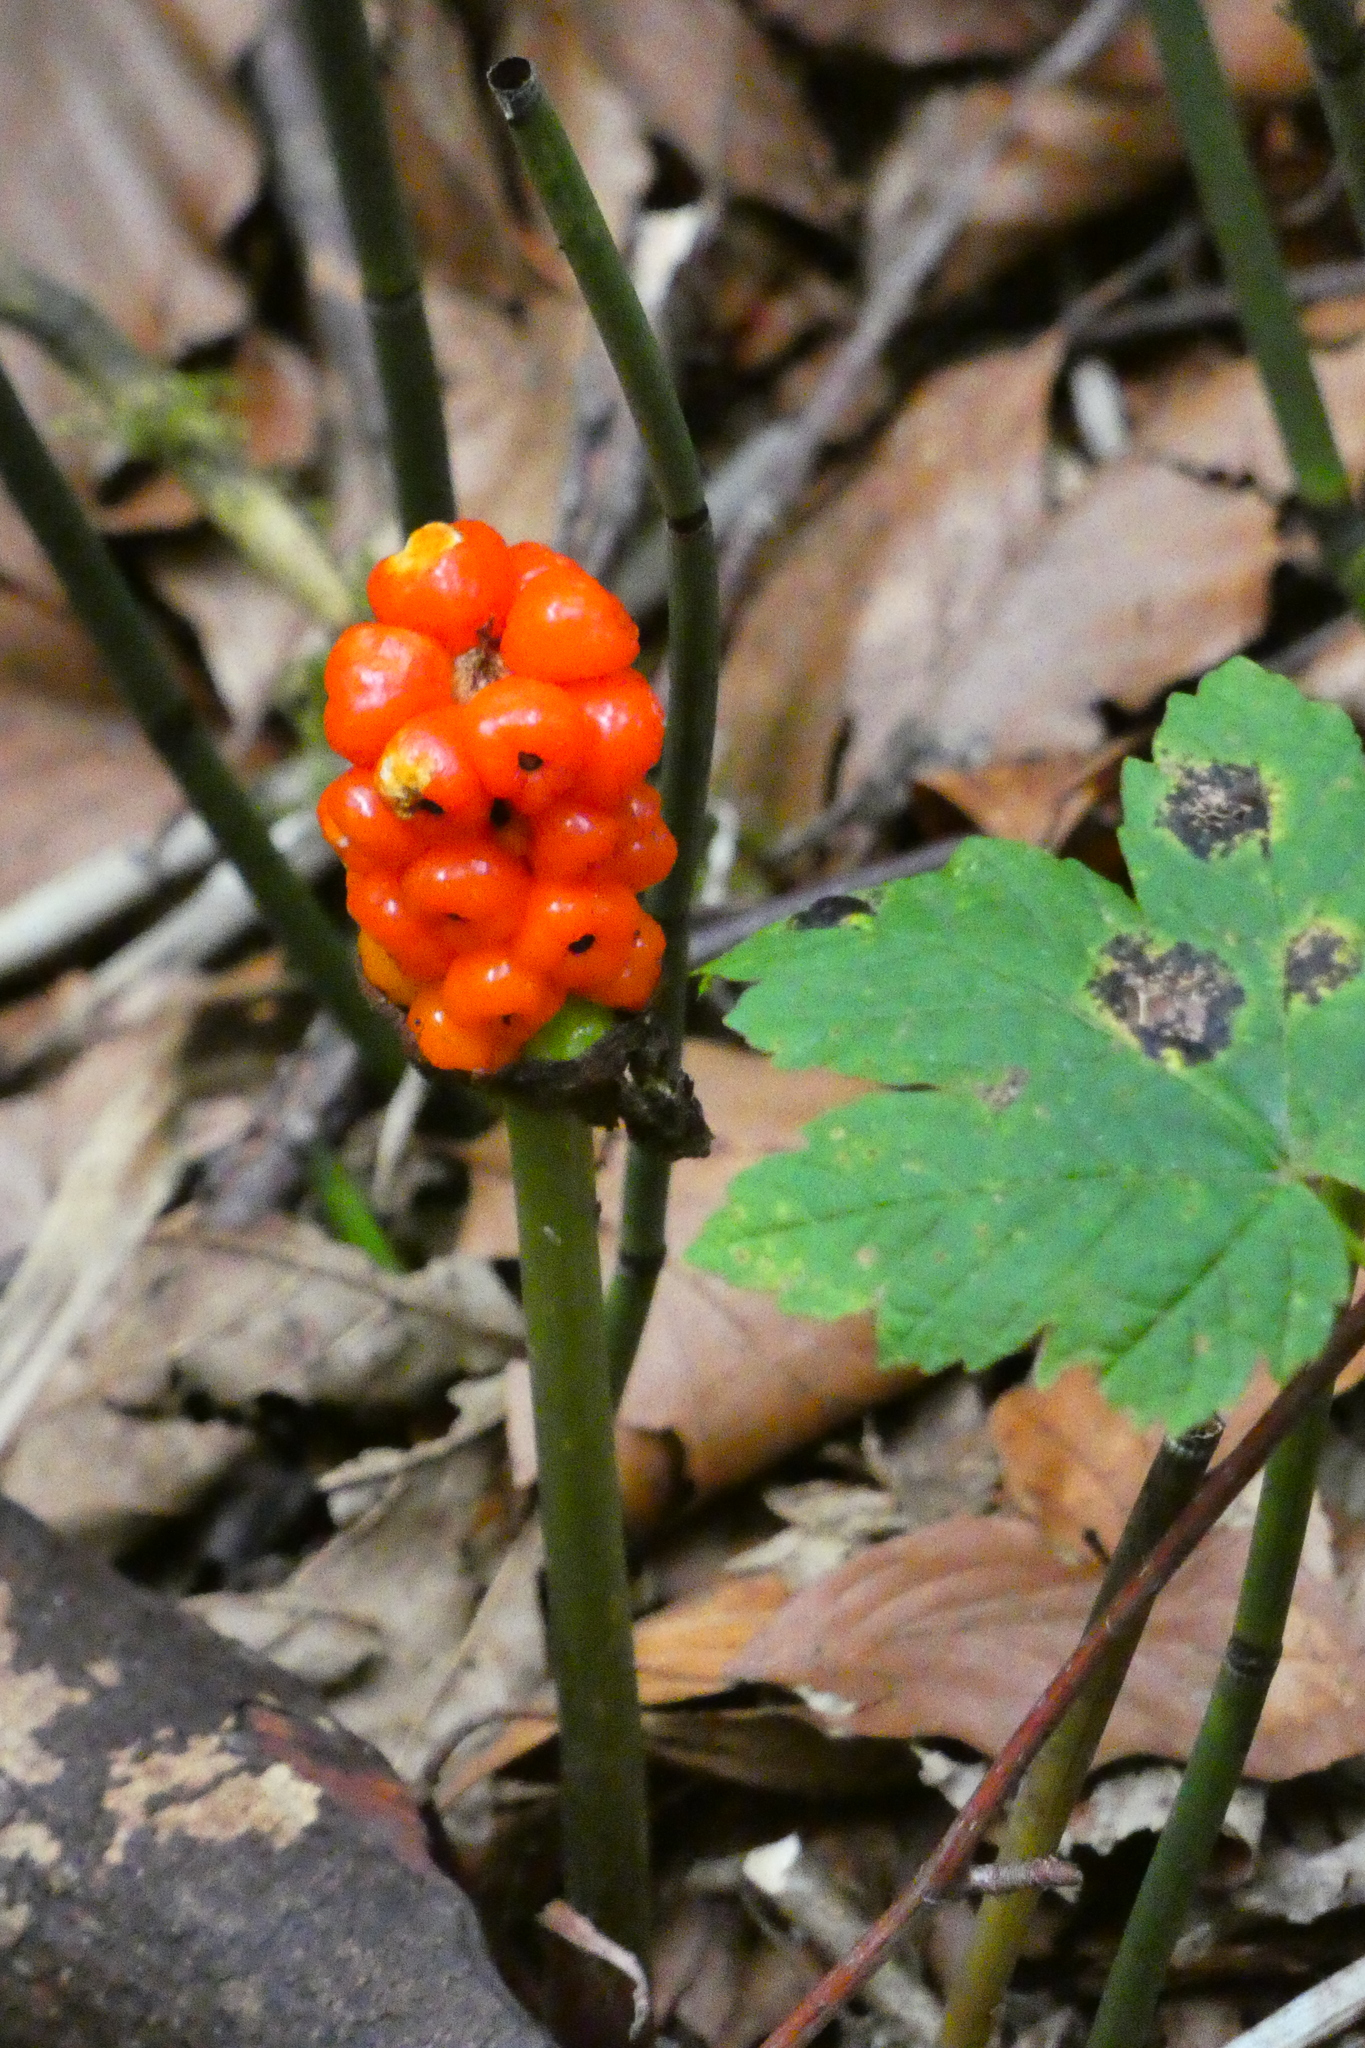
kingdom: Plantae
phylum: Tracheophyta
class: Liliopsida
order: Alismatales
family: Araceae
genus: Arum
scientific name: Arum maculatum
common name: Lords-and-ladies
